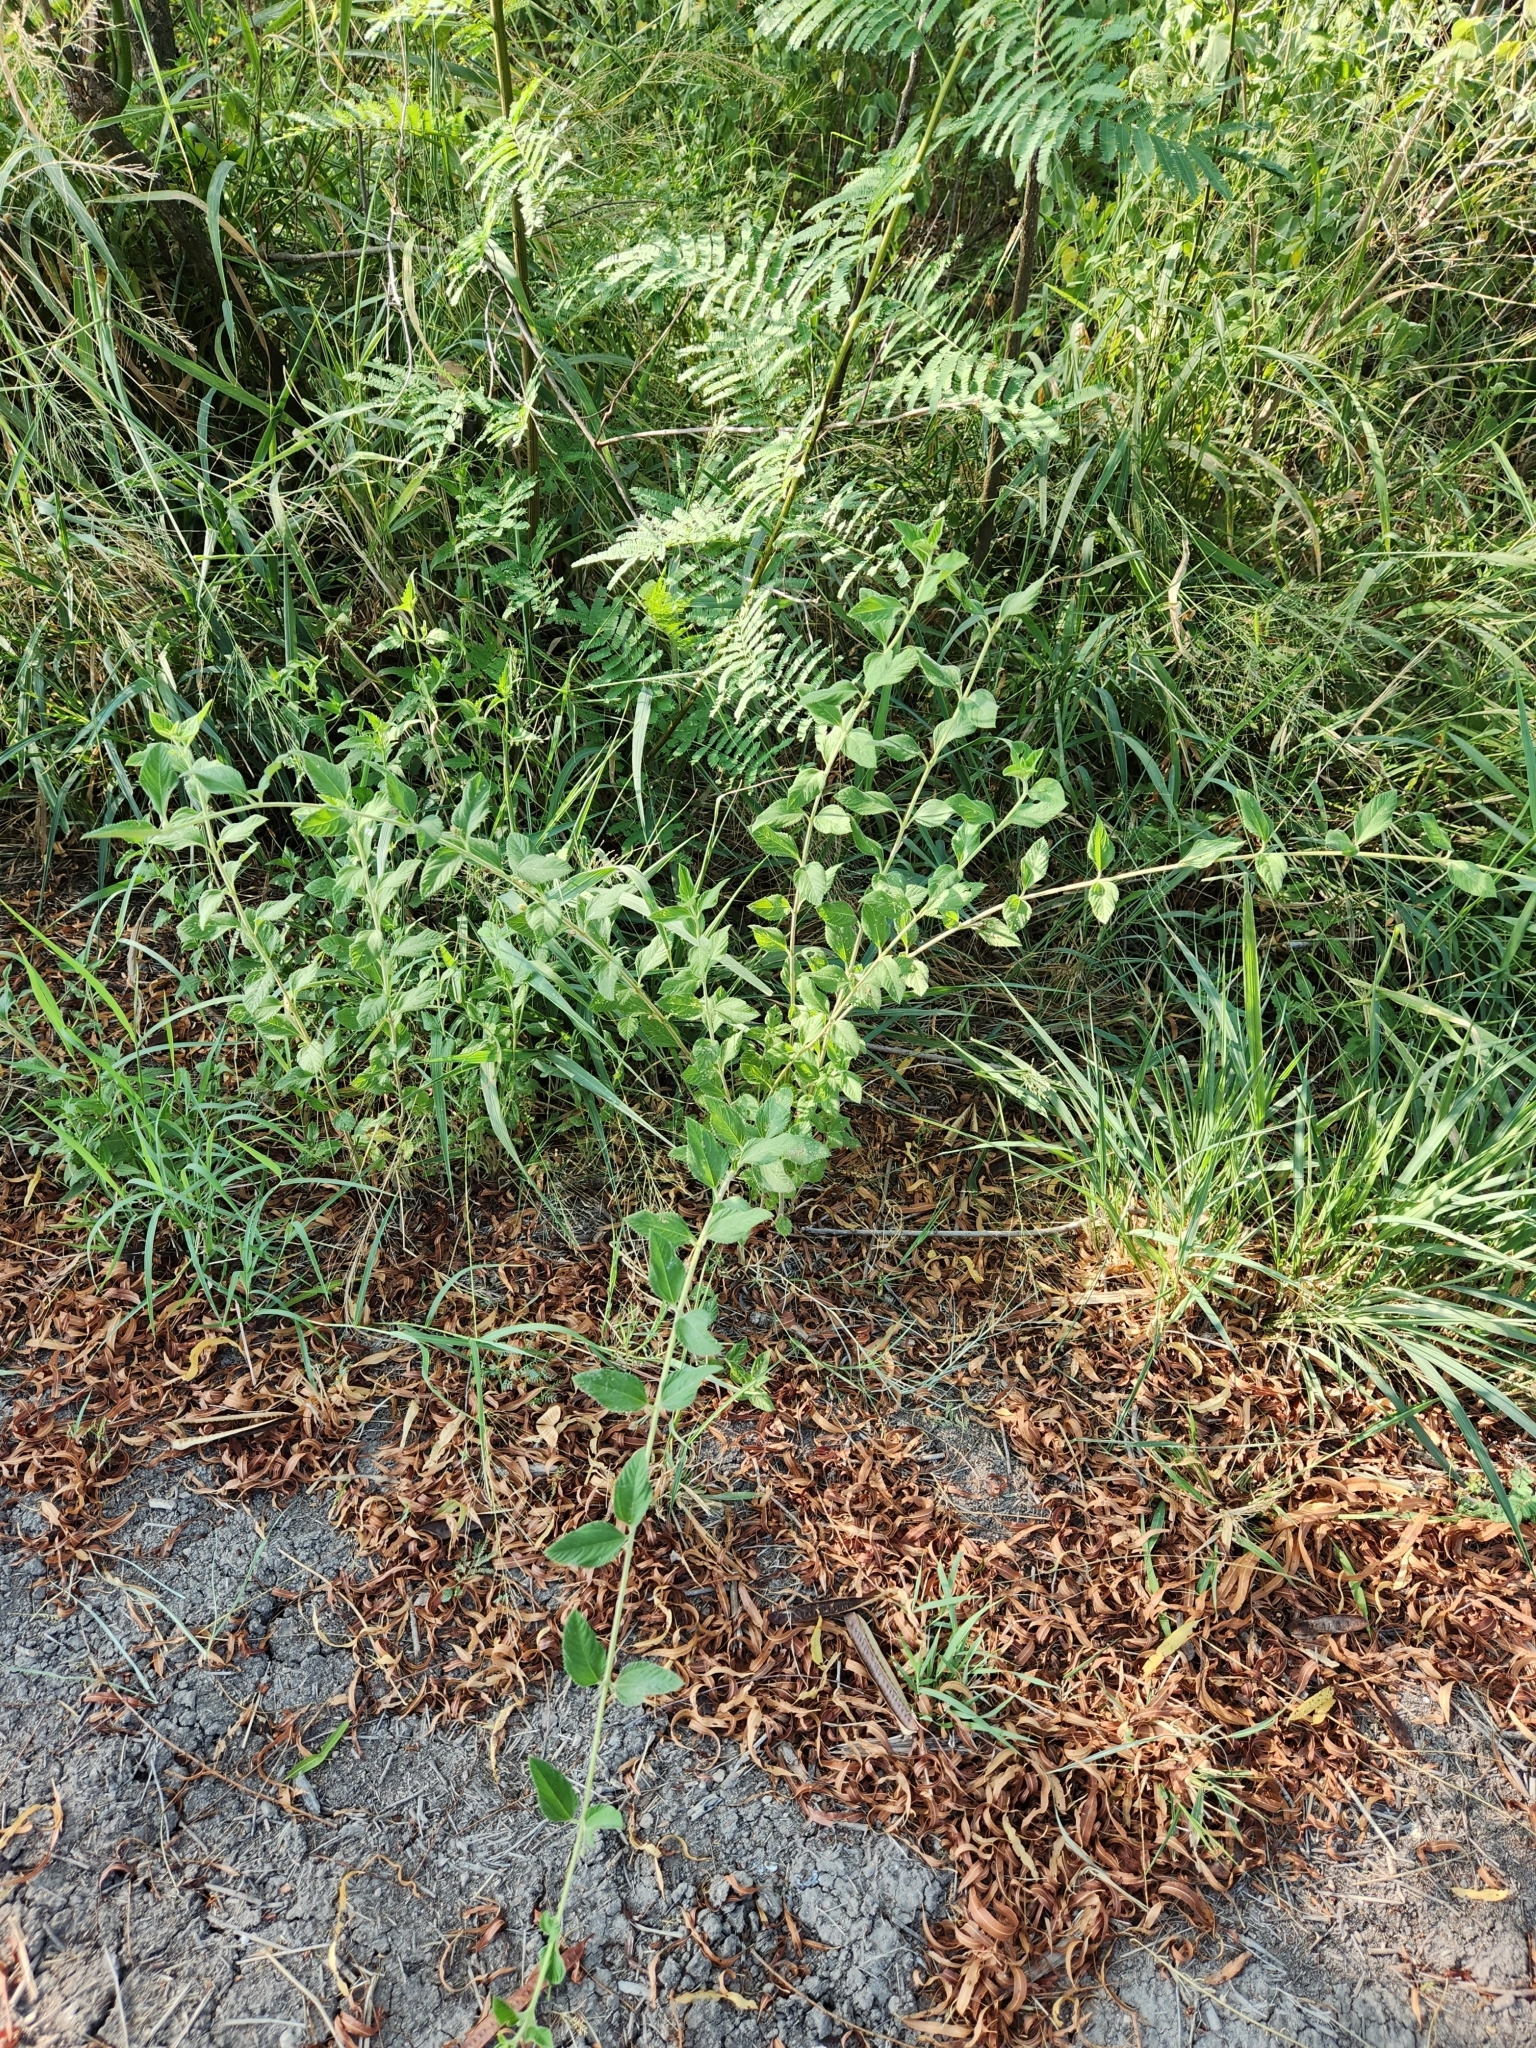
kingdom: Plantae
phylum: Tracheophyta
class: Magnoliopsida
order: Lamiales
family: Verbenaceae
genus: Lippia
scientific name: Lippia alba
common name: Bushy matgrass
